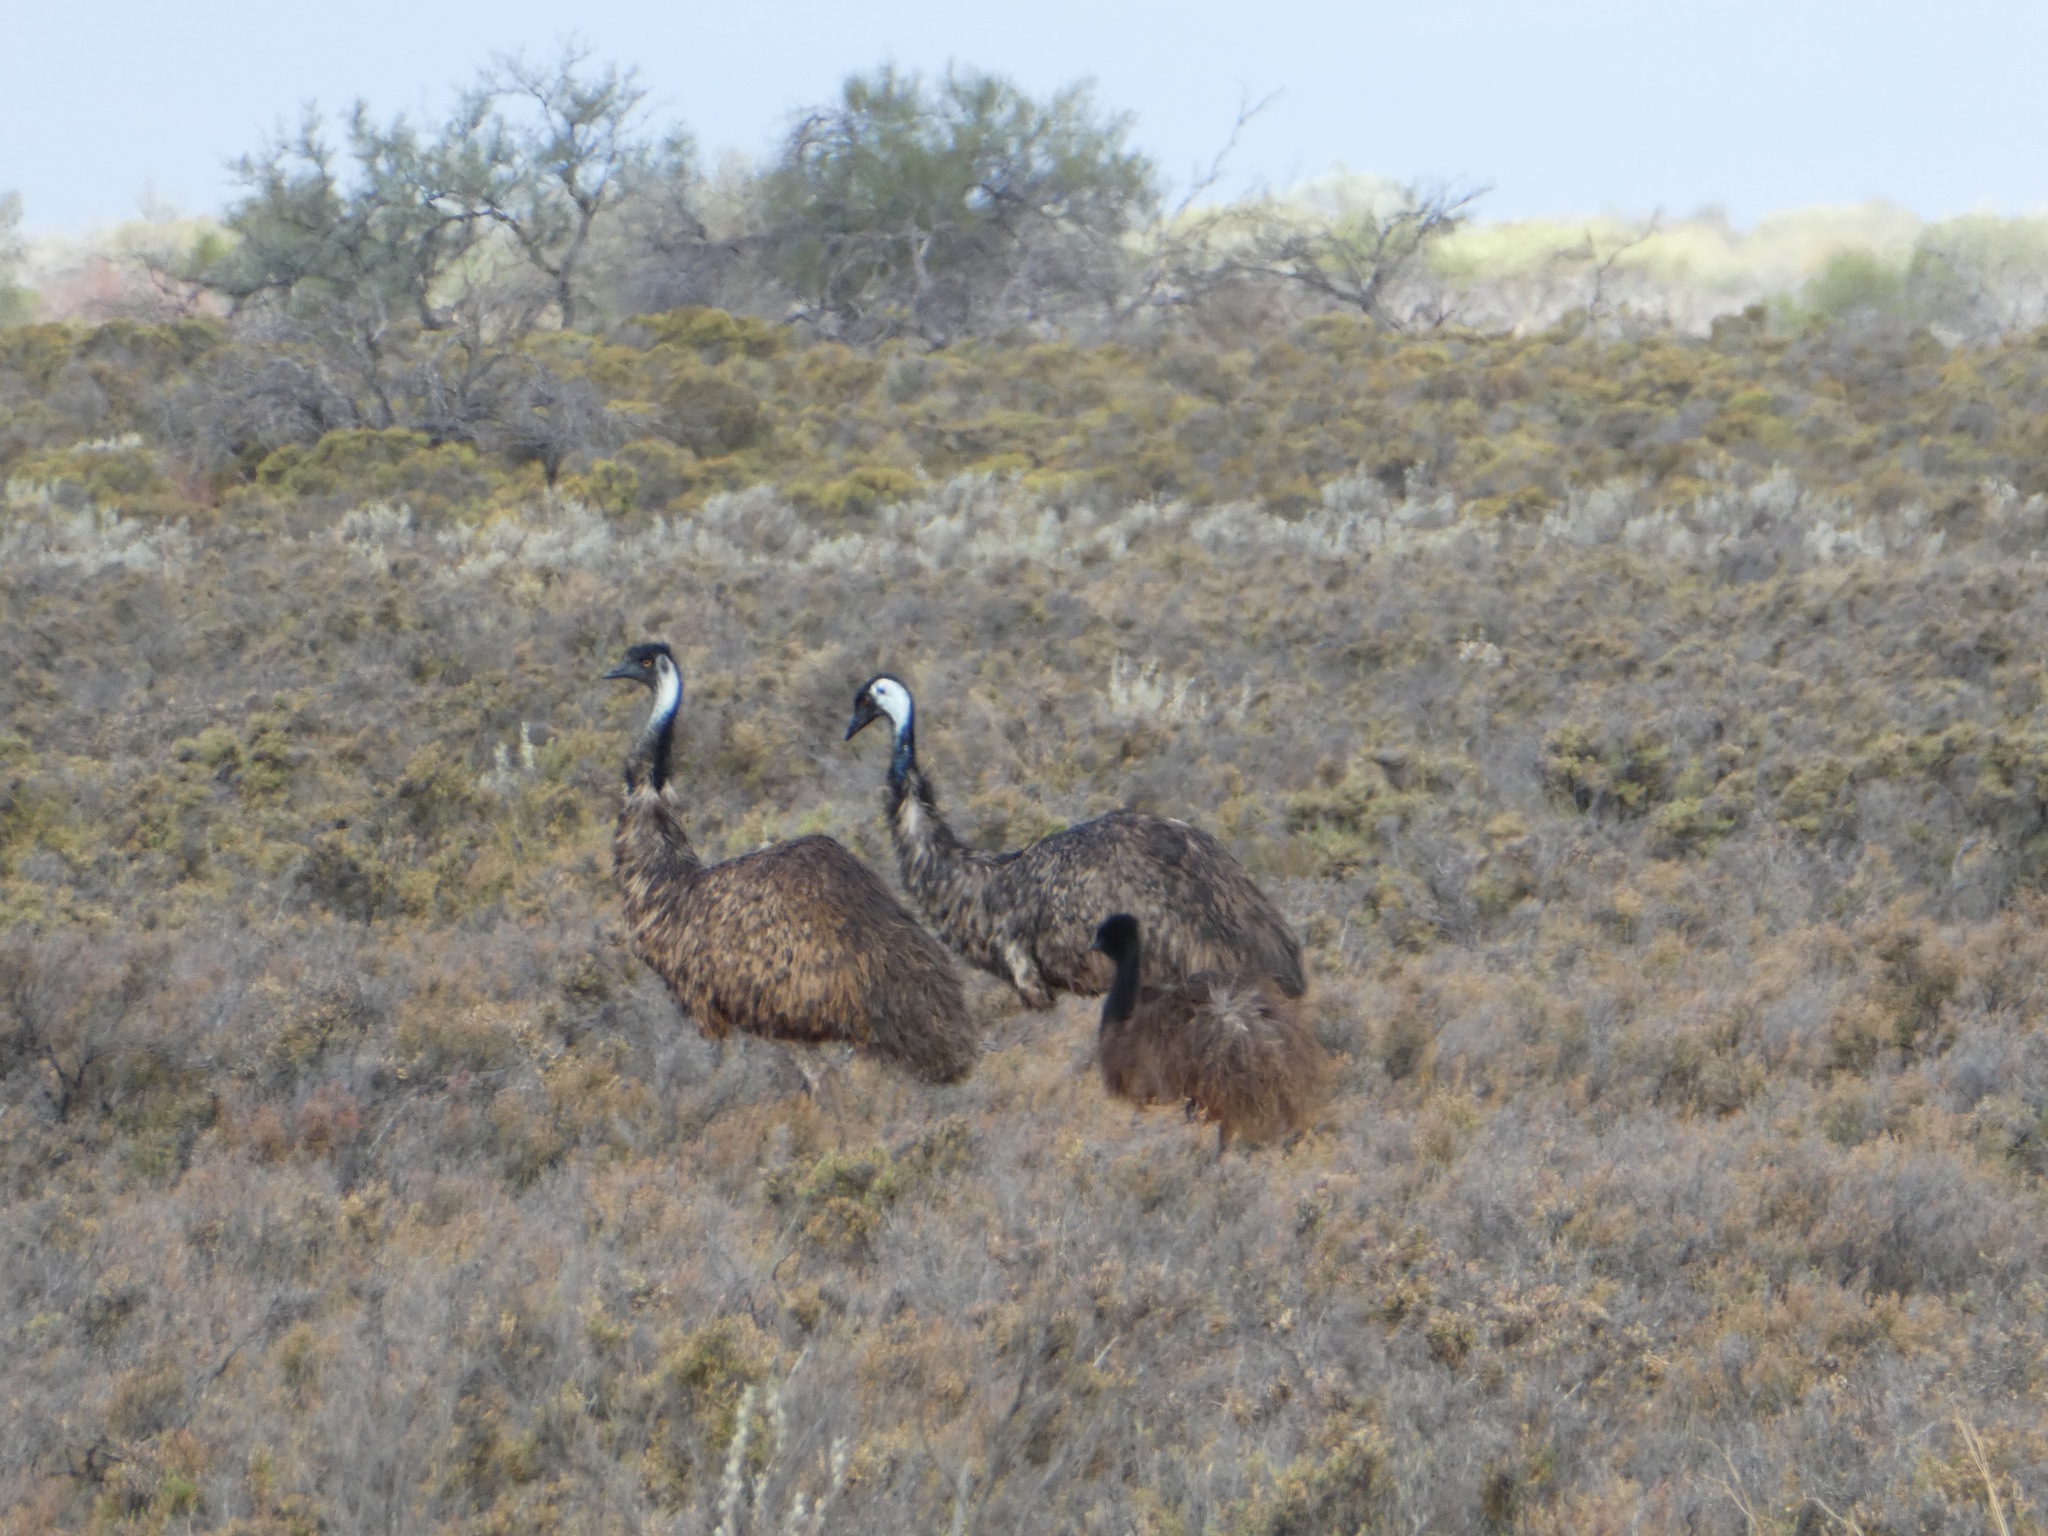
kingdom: Animalia
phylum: Chordata
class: Aves
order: Casuariiformes
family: Dromaiidae
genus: Dromaius
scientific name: Dromaius novaehollandiae
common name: Emu
